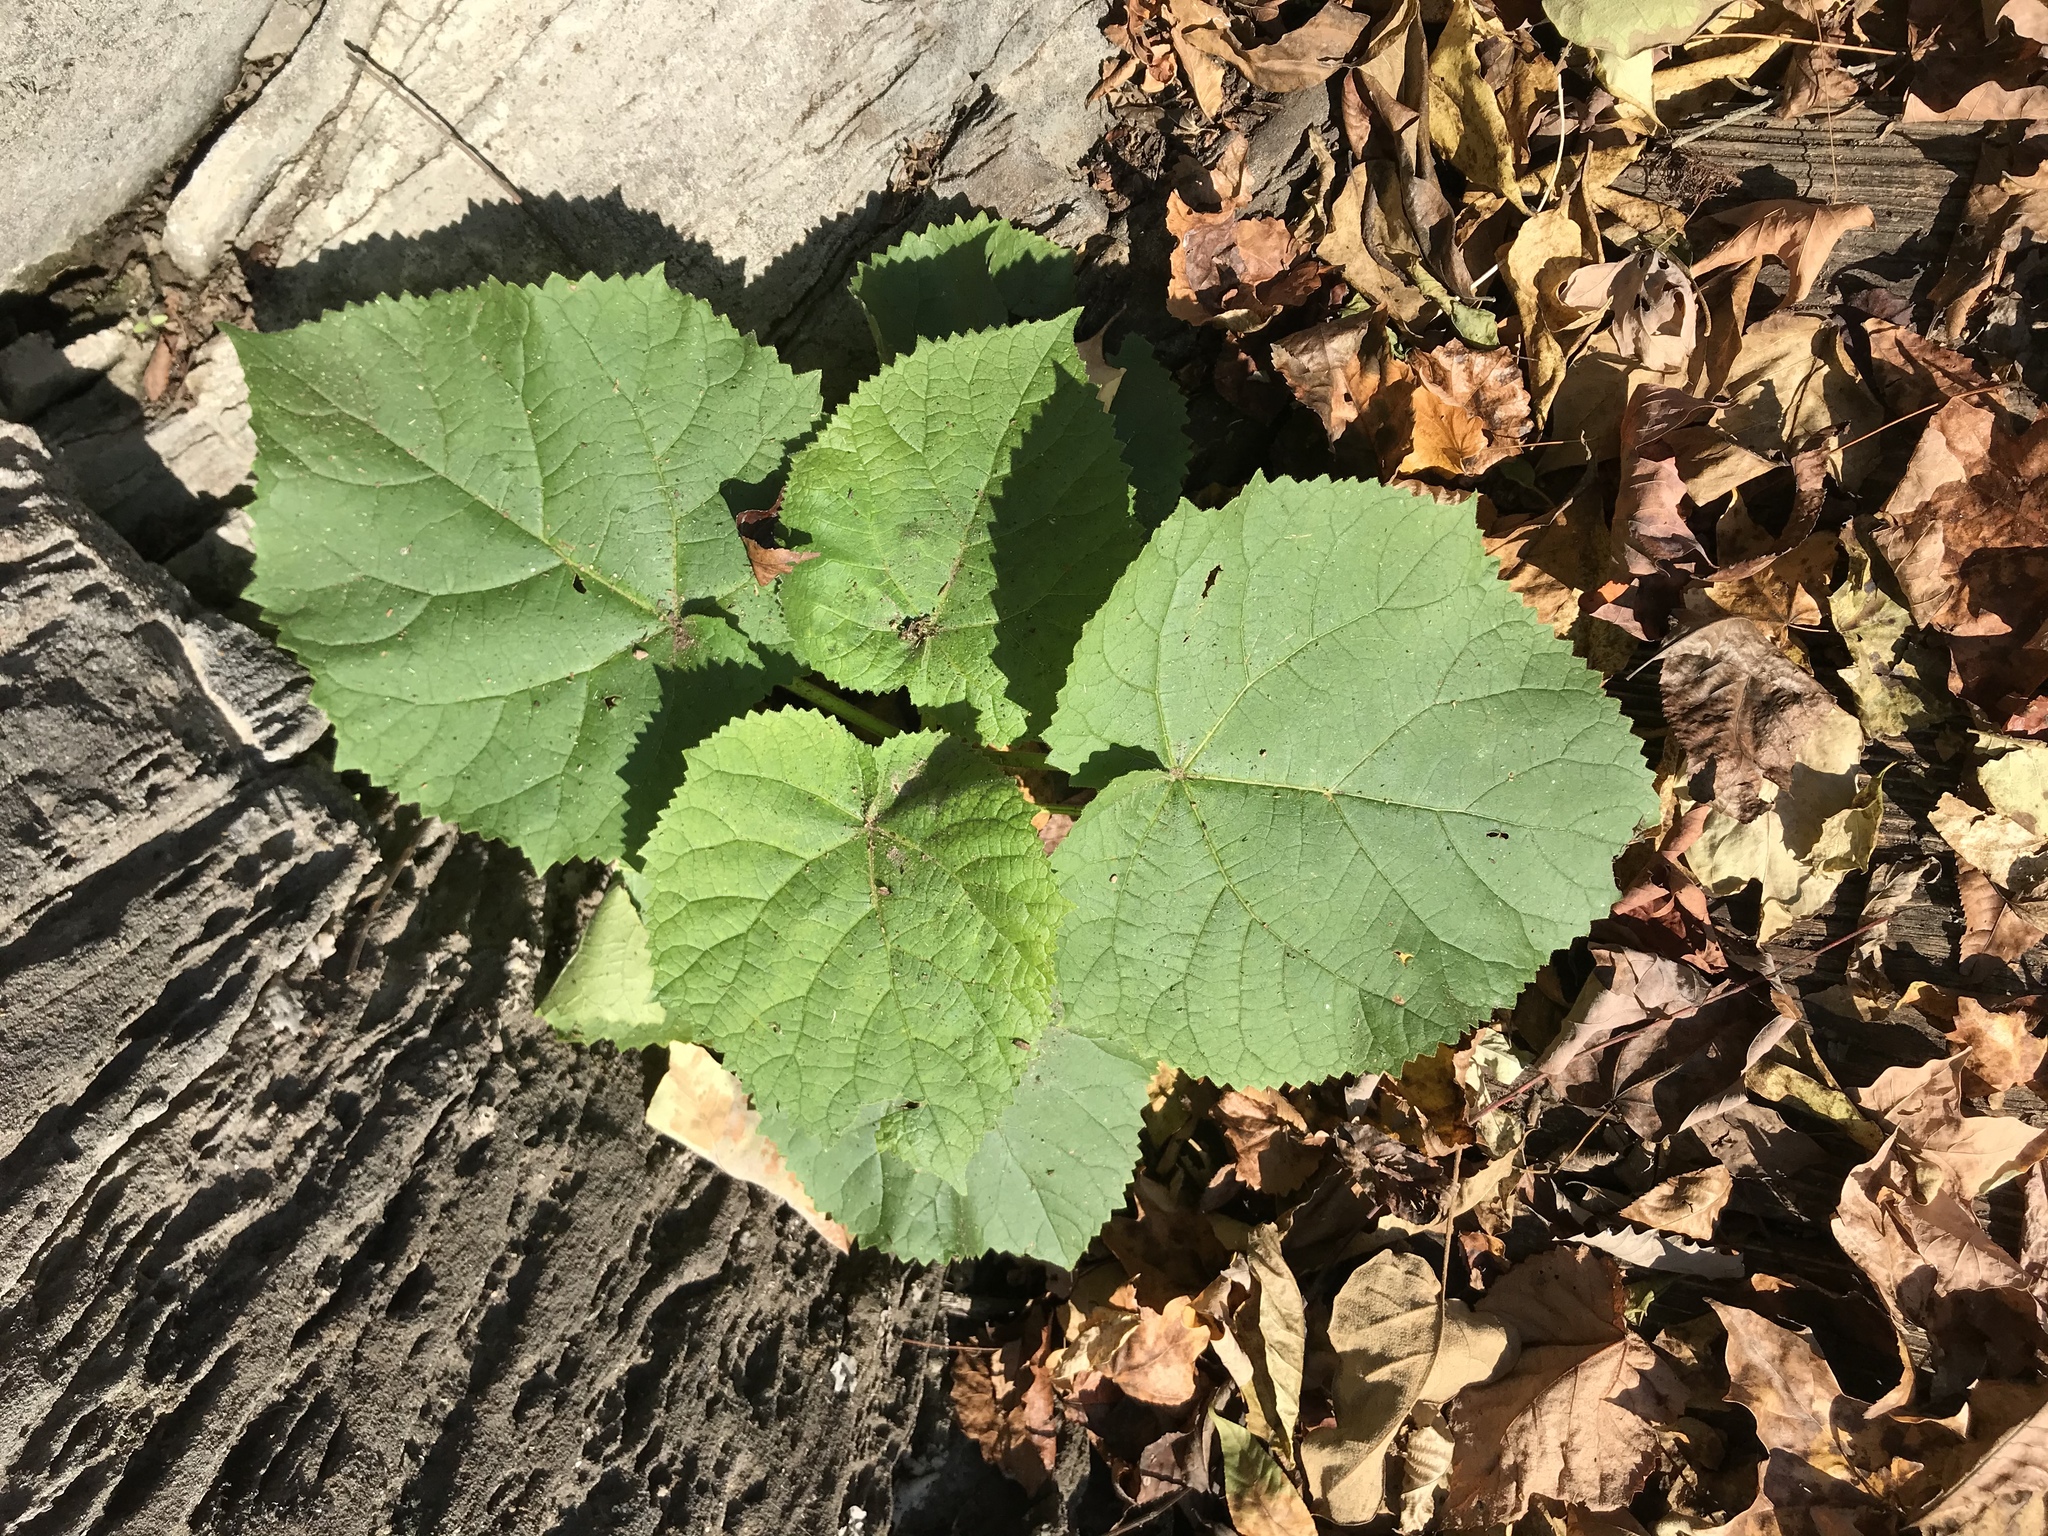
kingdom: Plantae
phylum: Tracheophyta
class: Magnoliopsida
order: Lamiales
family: Paulowniaceae
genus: Paulownia
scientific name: Paulownia tomentosa
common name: Foxglove-tree
